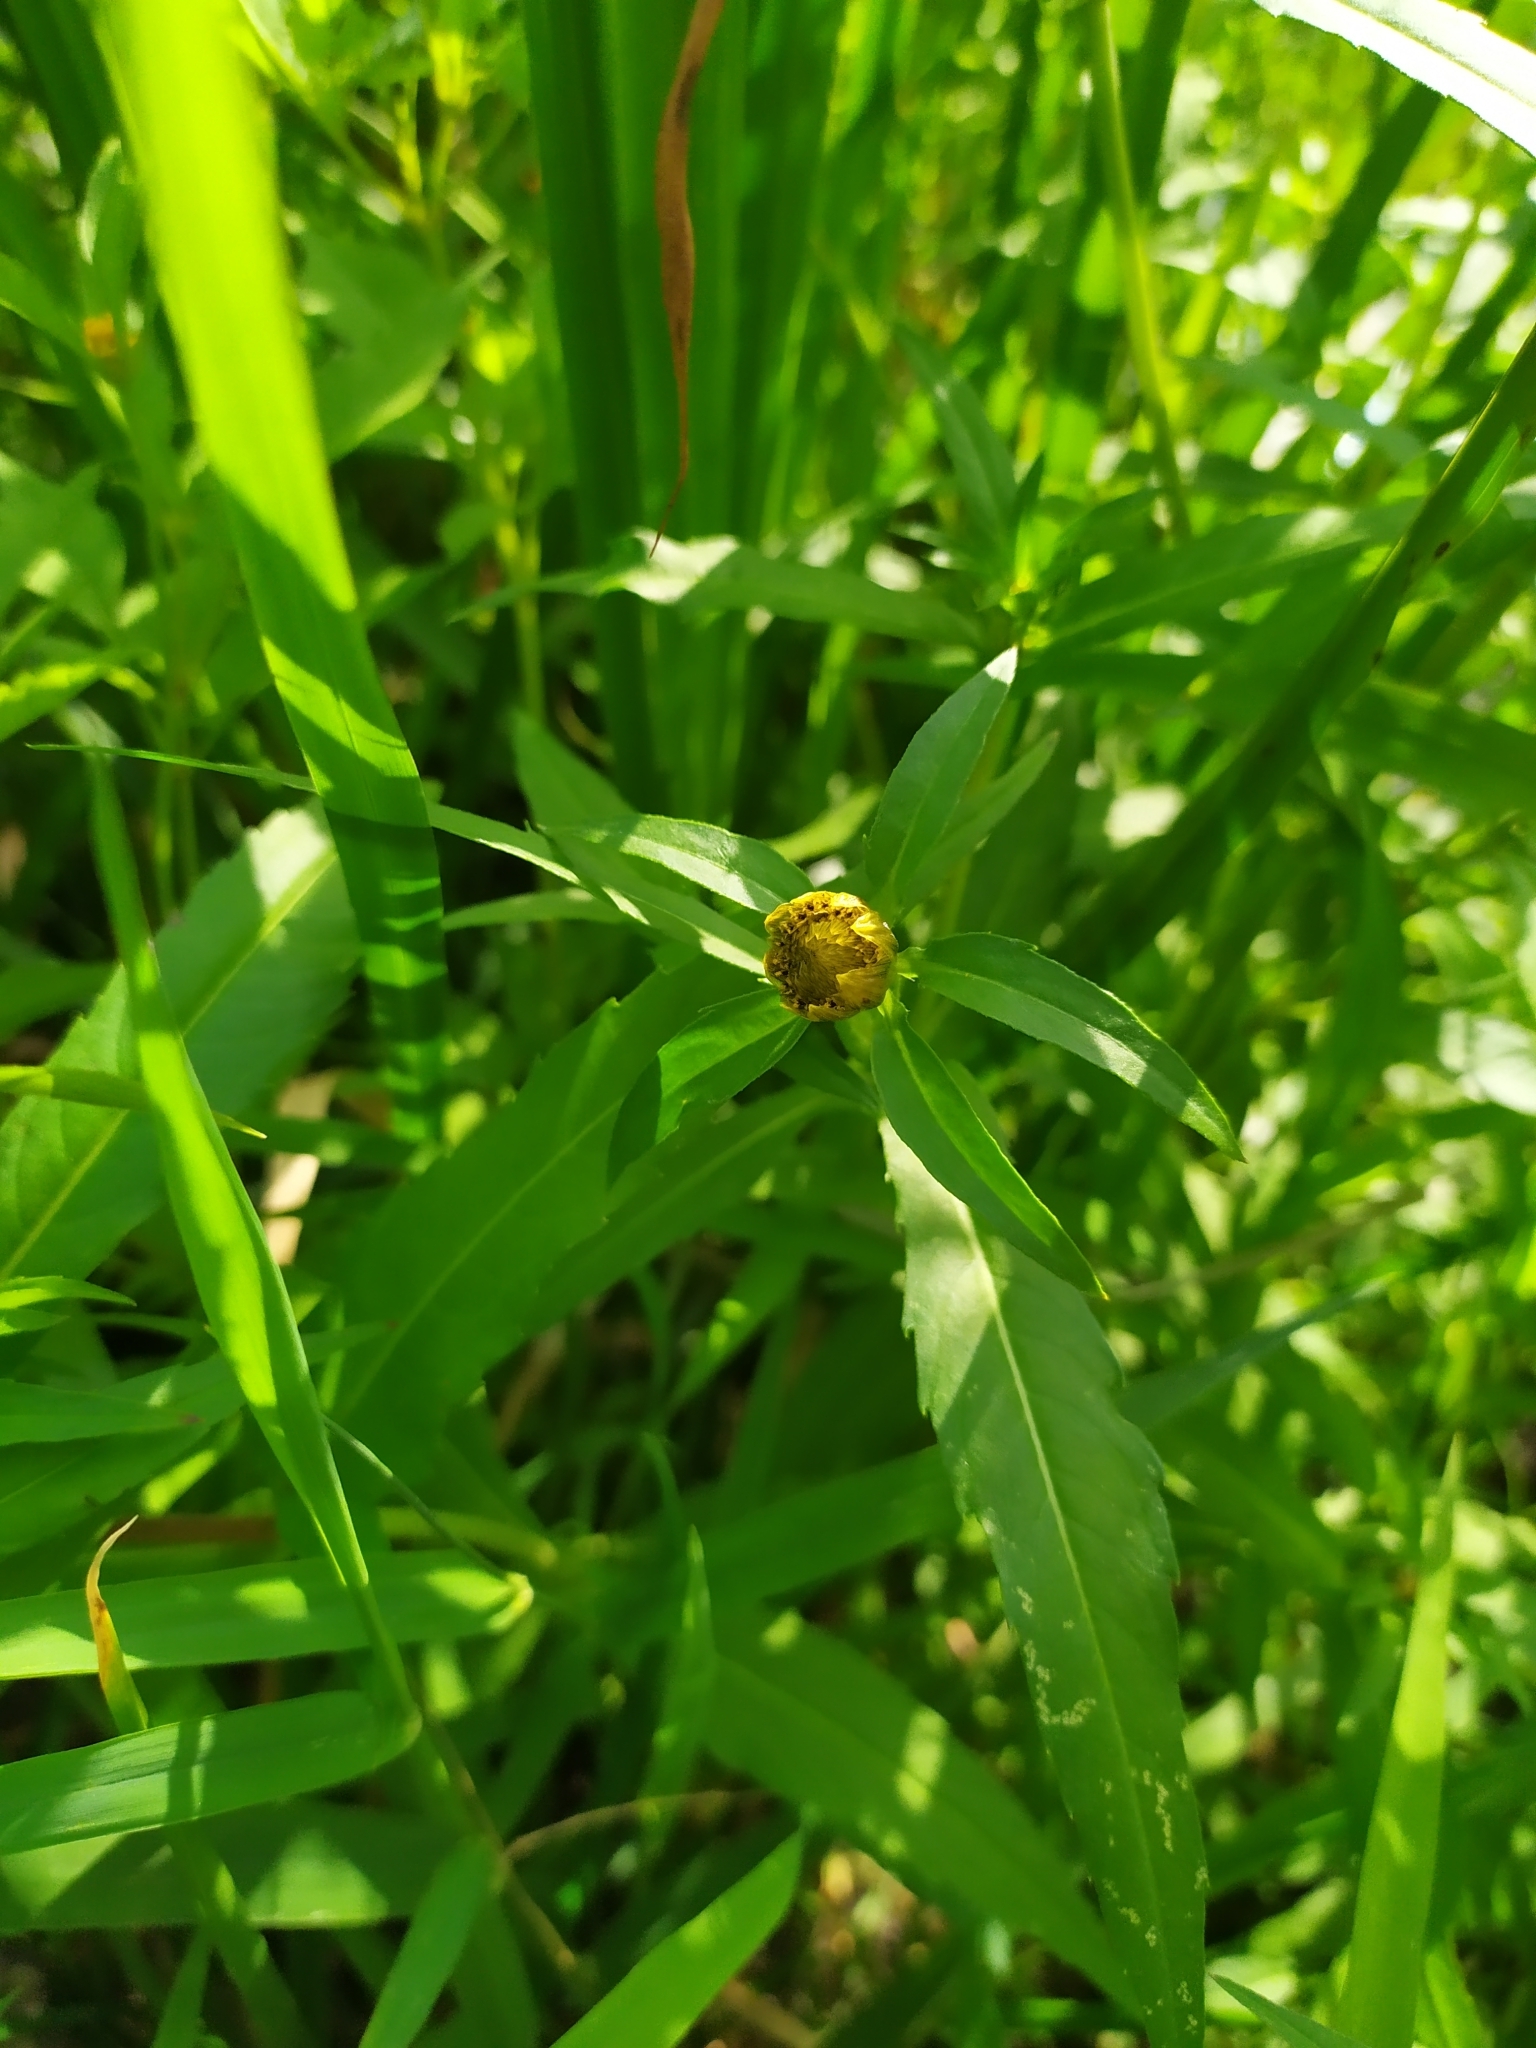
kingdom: Plantae
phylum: Tracheophyta
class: Magnoliopsida
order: Asterales
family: Asteraceae
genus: Bidens
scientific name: Bidens cernua
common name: Nodding bur-marigold
